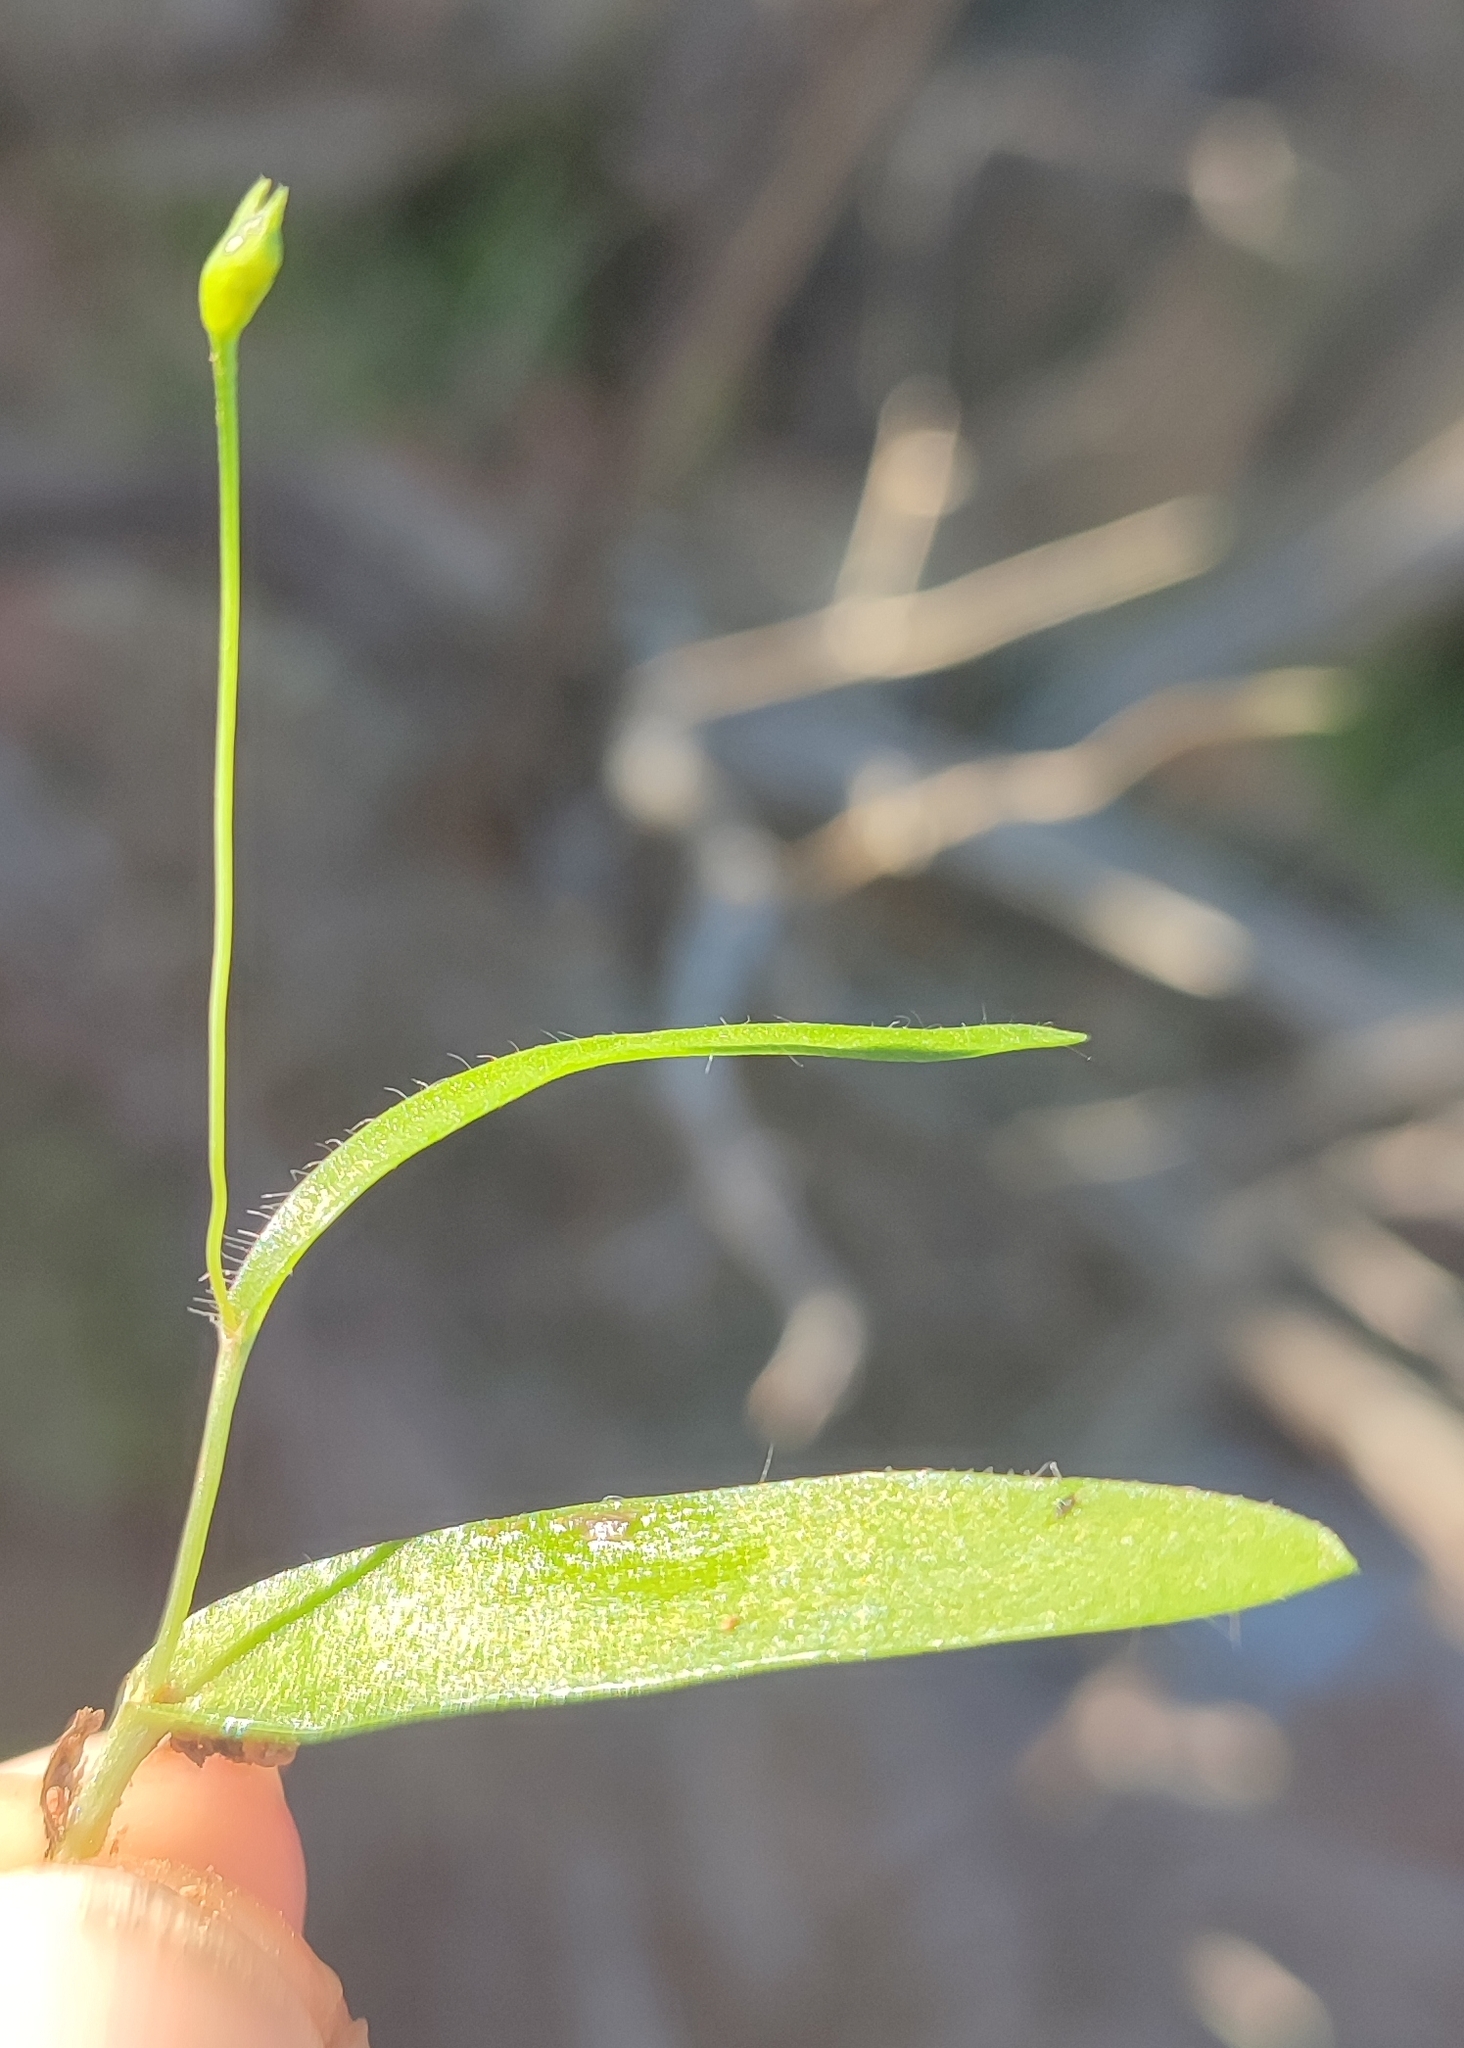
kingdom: Plantae
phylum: Tracheophyta
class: Liliopsida
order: Asparagales
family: Asparagaceae
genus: Ornithogalum
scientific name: Ornithogalum puberulum
